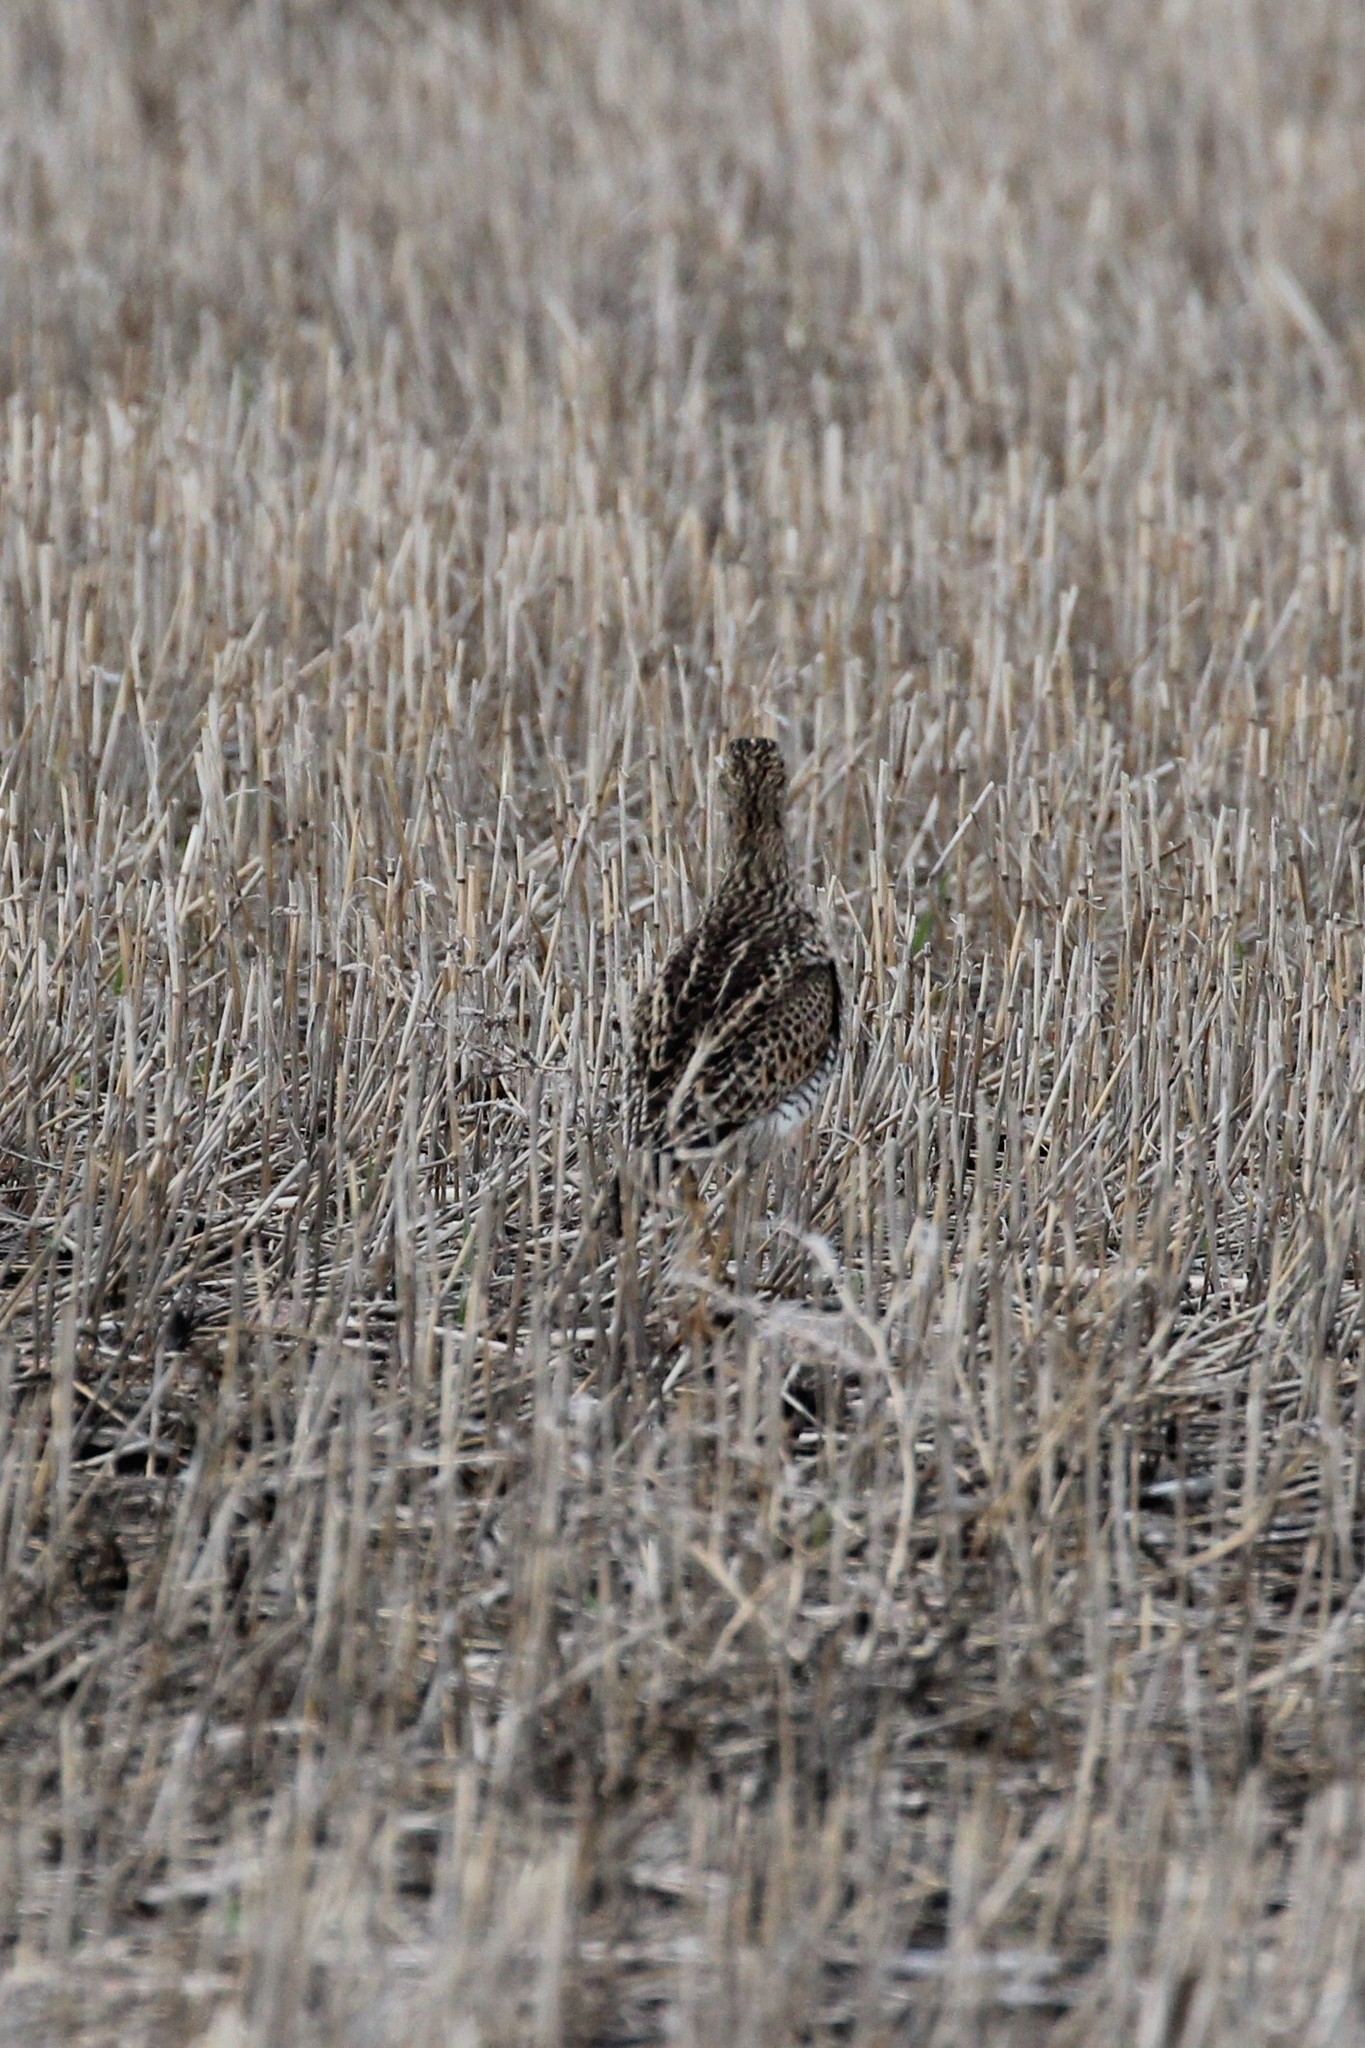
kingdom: Animalia
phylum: Chordata
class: Aves
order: Charadriiformes
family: Scolopacidae
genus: Bartramia
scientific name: Bartramia longicauda
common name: Upland sandpiper
